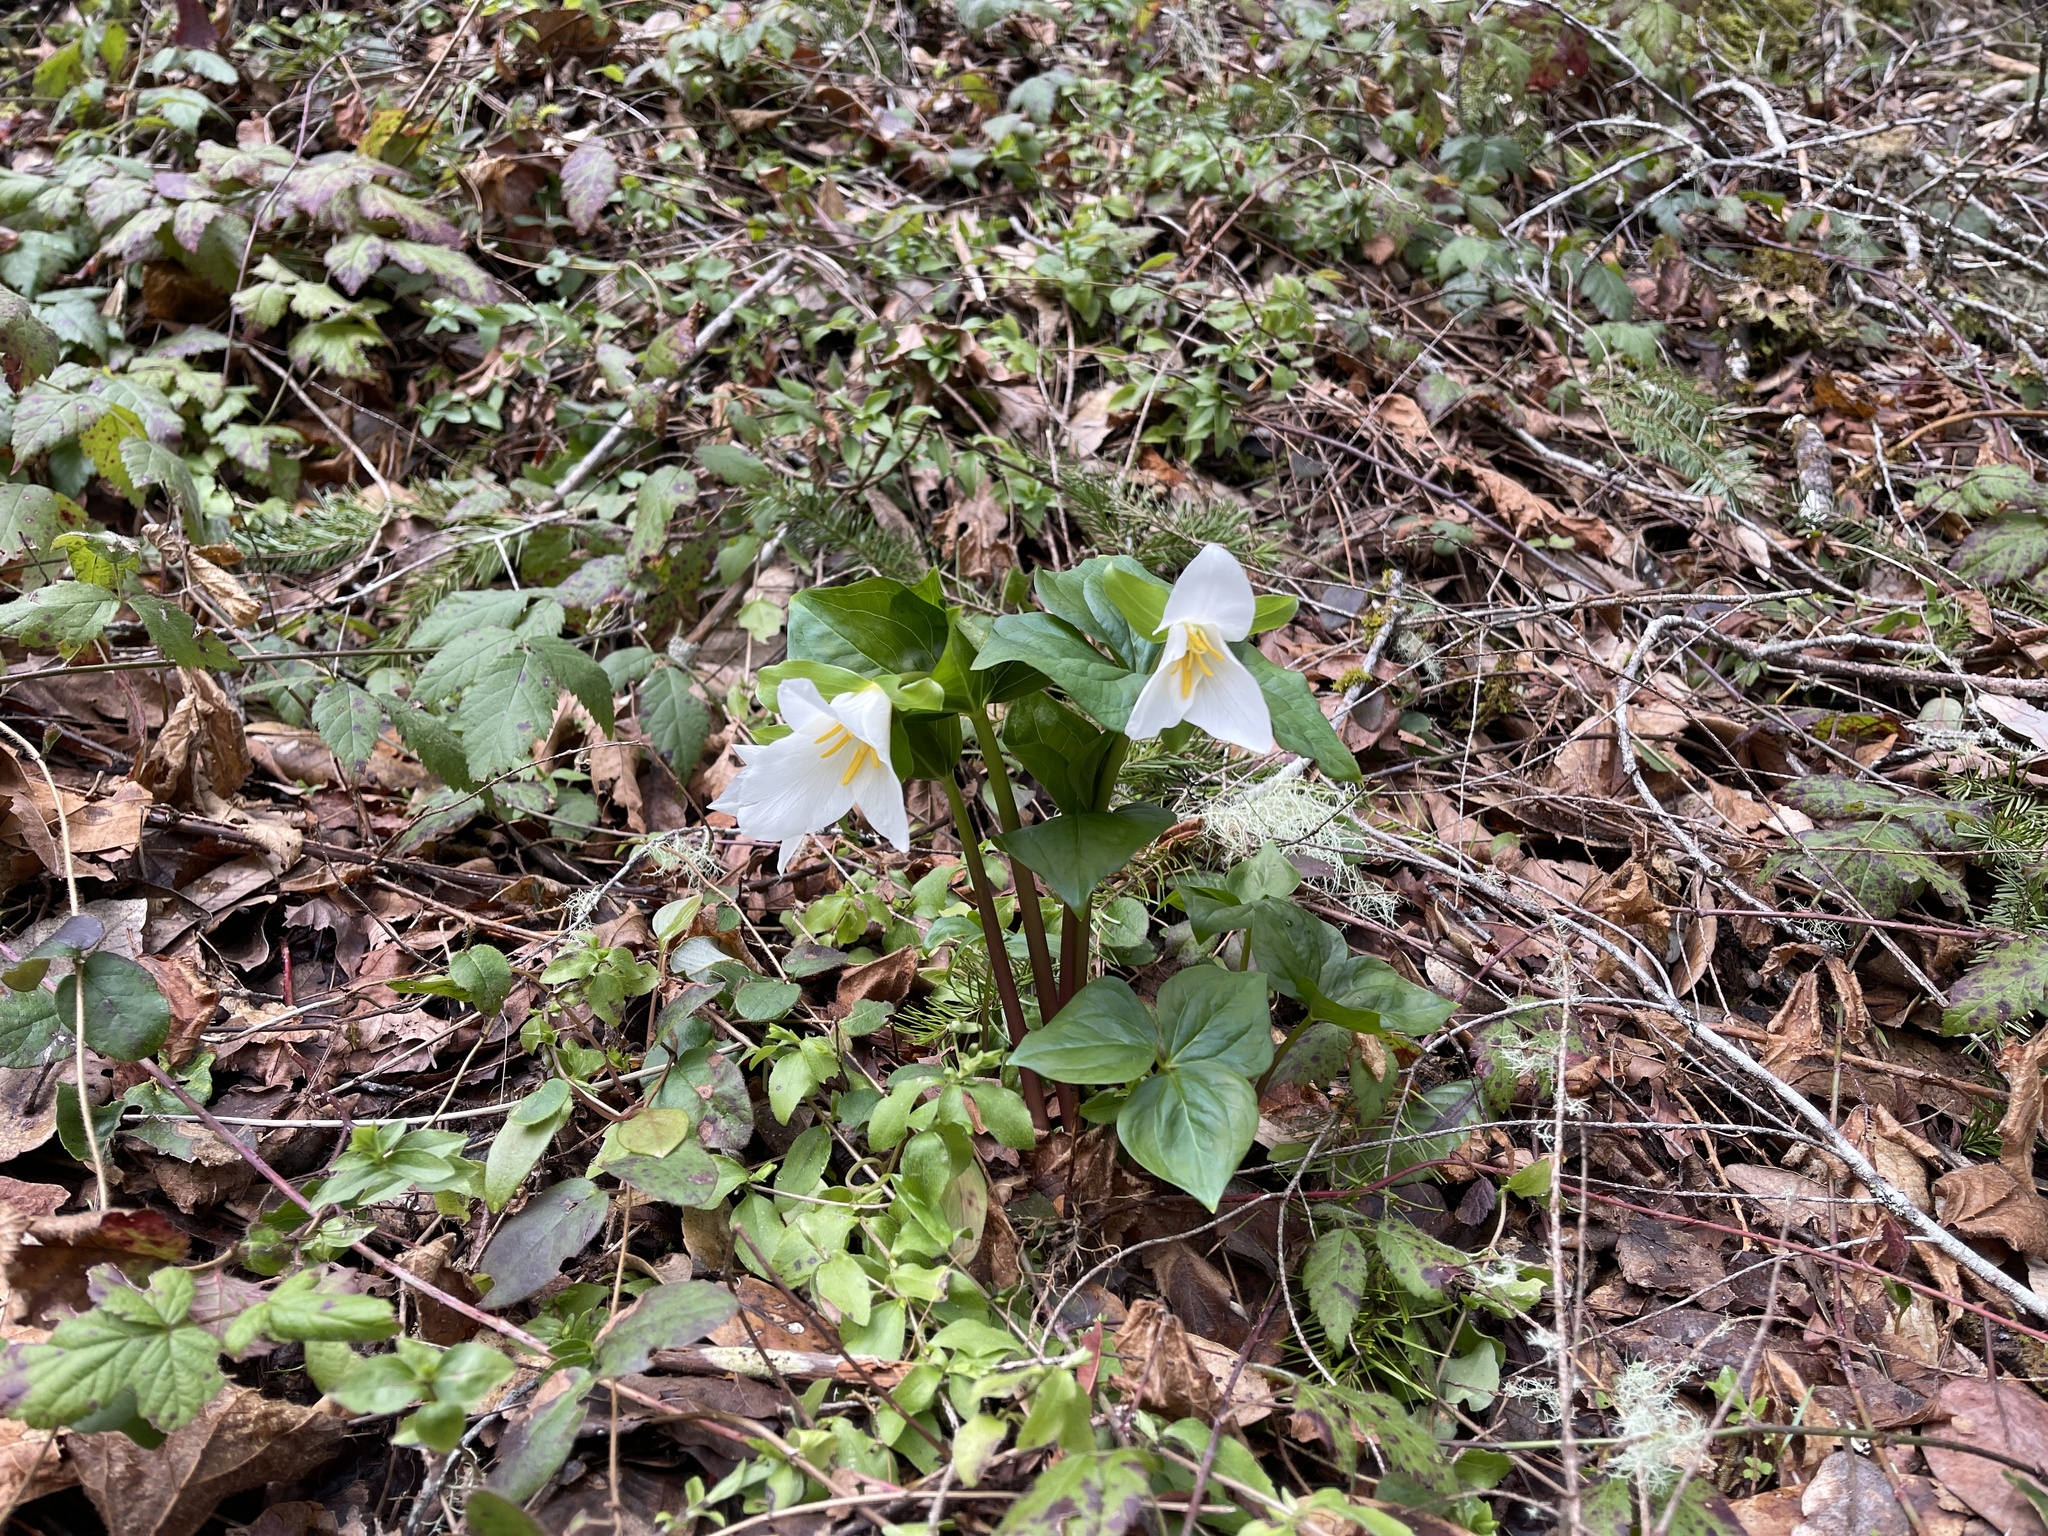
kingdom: Plantae
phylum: Tracheophyta
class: Liliopsida
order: Liliales
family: Melanthiaceae
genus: Trillium
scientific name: Trillium ovatum
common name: Pacific trillium
